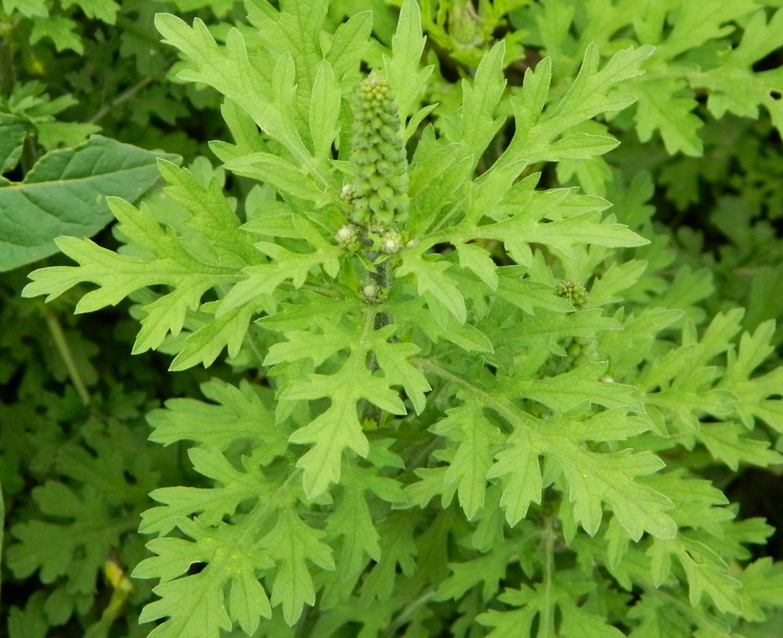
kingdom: Plantae
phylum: Tracheophyta
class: Magnoliopsida
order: Asterales
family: Asteraceae
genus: Ambrosia
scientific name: Ambrosia psilostachya
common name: Perennial ragweed
